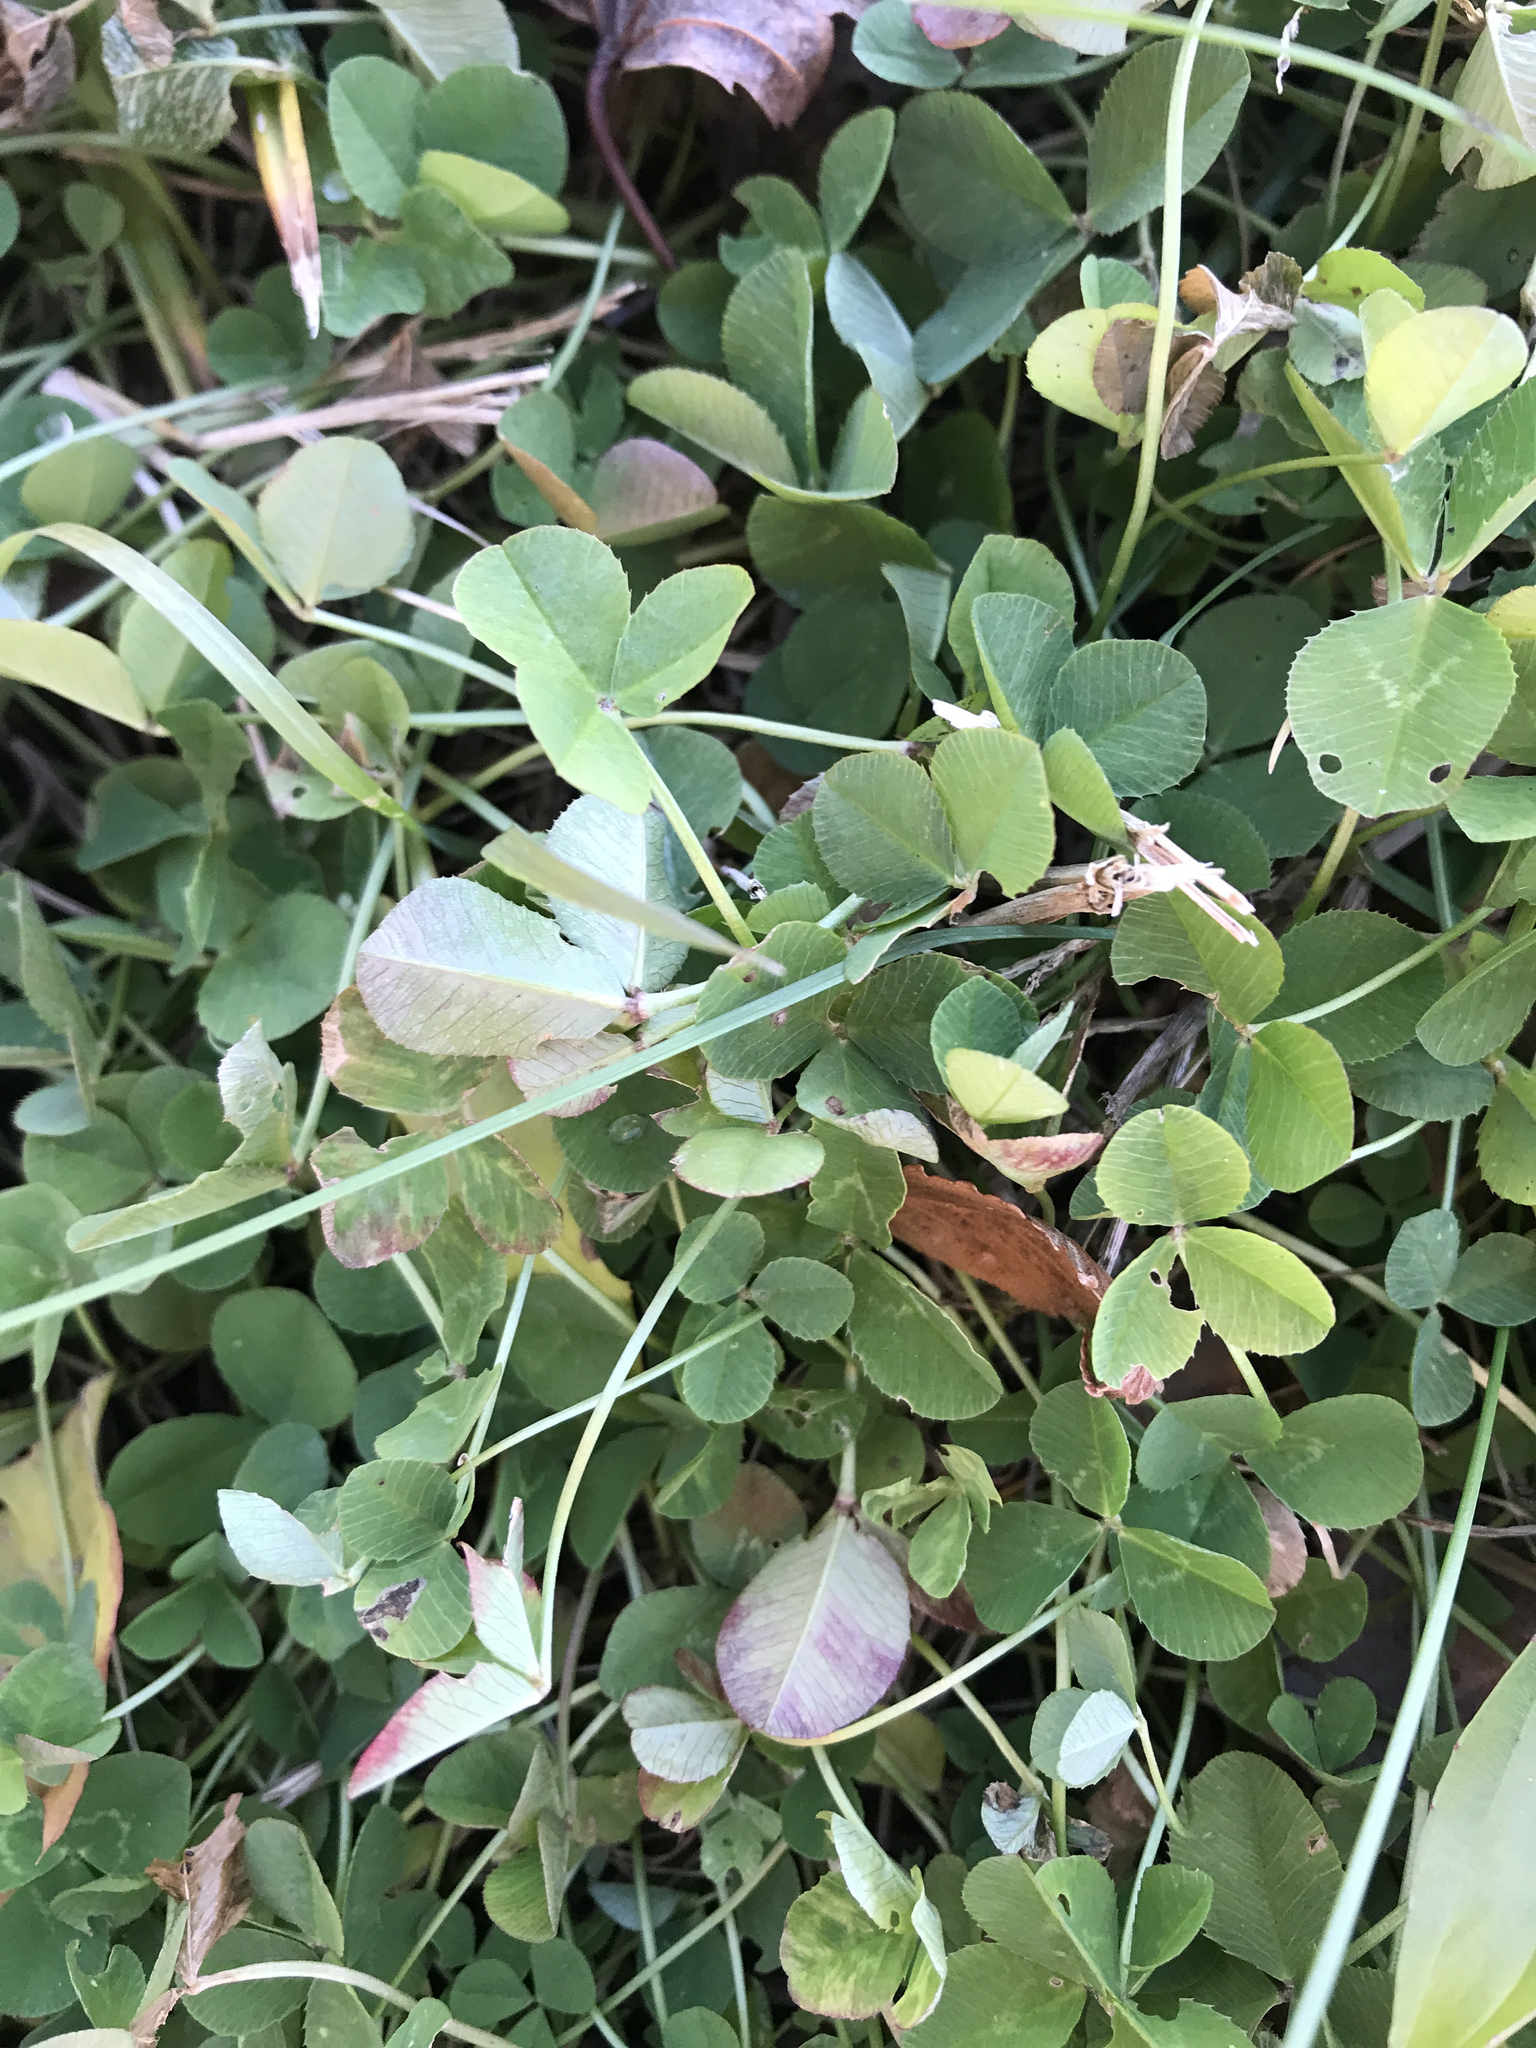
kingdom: Plantae
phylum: Tracheophyta
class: Magnoliopsida
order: Fabales
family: Fabaceae
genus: Trifolium
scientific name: Trifolium repens
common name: White clover
